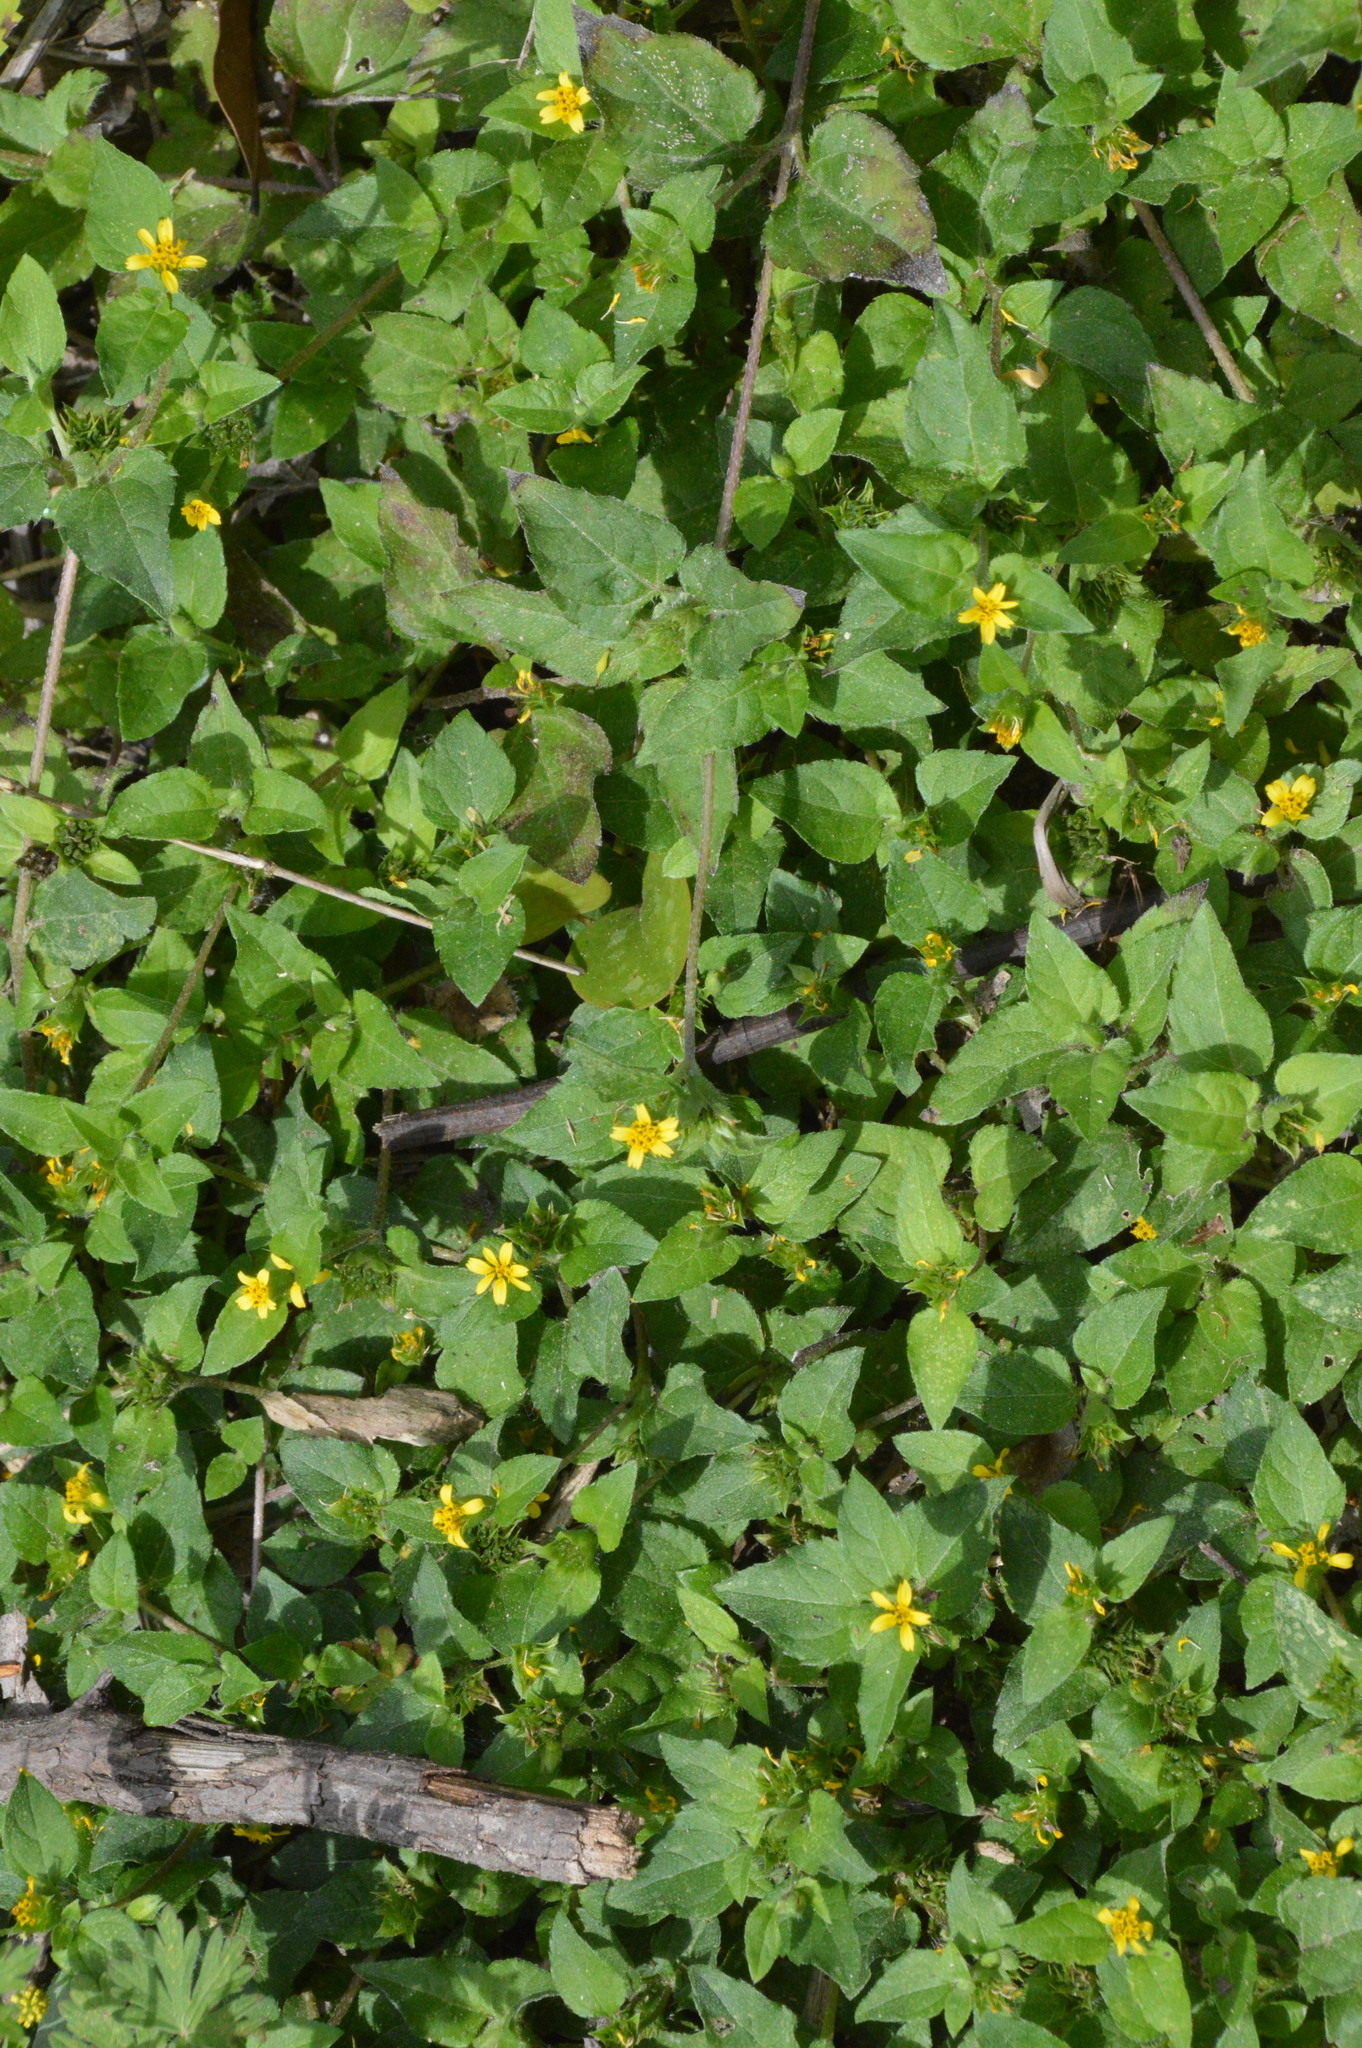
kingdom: Plantae
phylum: Tracheophyta
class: Magnoliopsida
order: Asterales
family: Asteraceae
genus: Calyptocarpus
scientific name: Calyptocarpus vialis
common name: Straggler daisy
